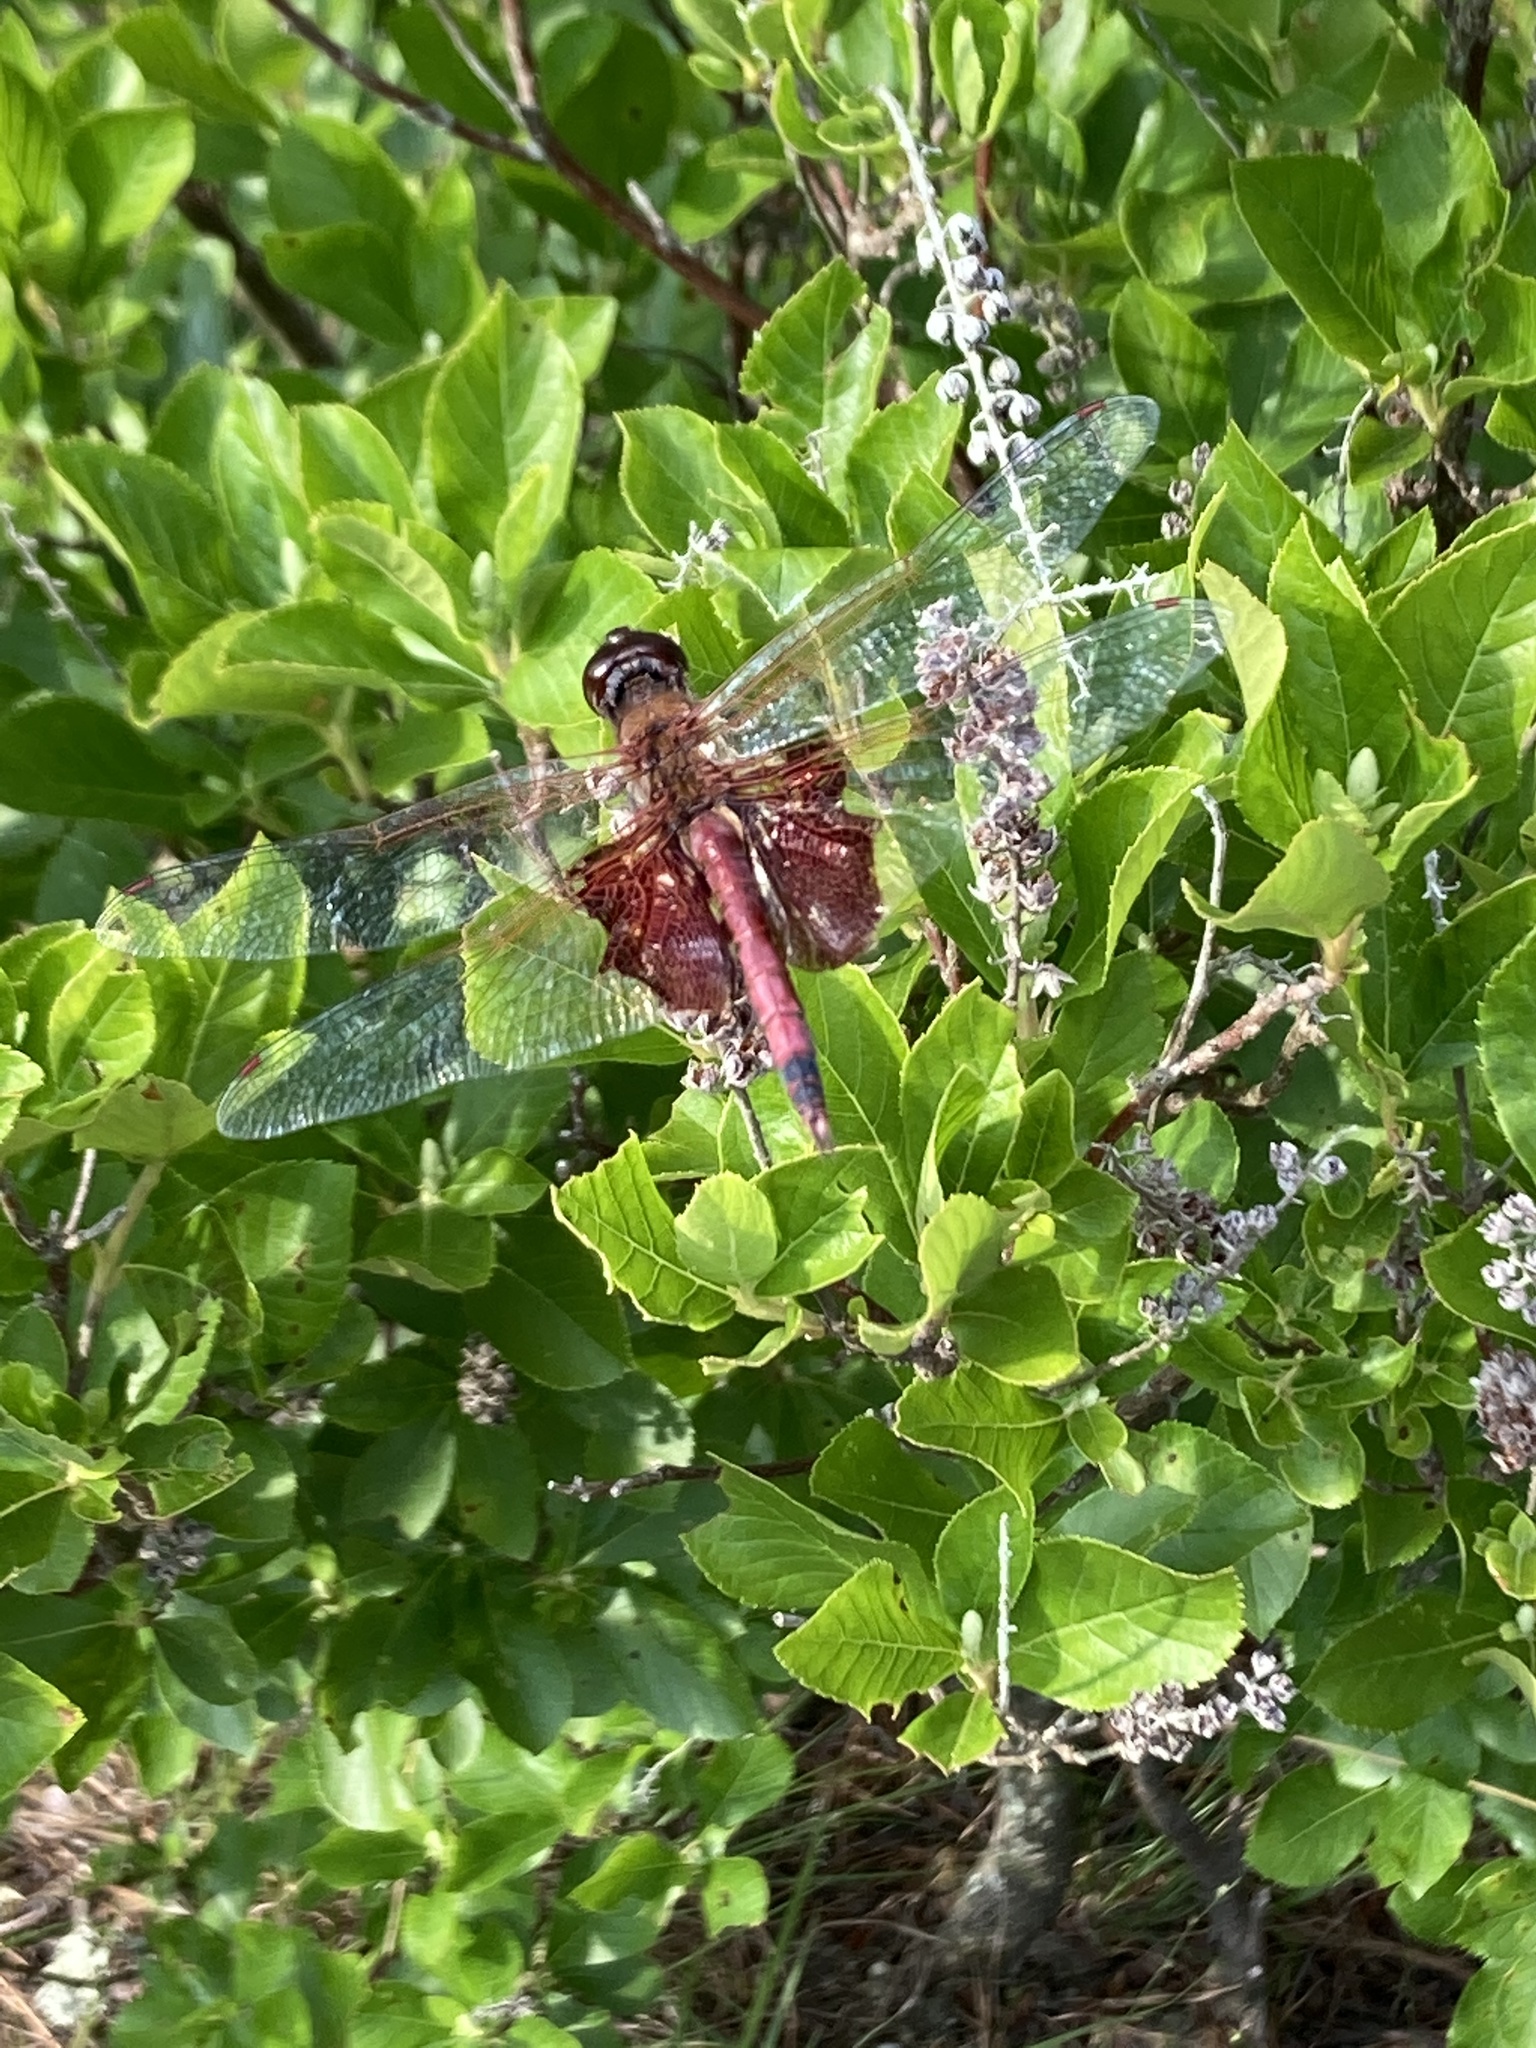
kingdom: Animalia
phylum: Arthropoda
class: Insecta
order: Odonata
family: Libellulidae
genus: Tramea
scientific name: Tramea carolina
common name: Carolina saddlebags
